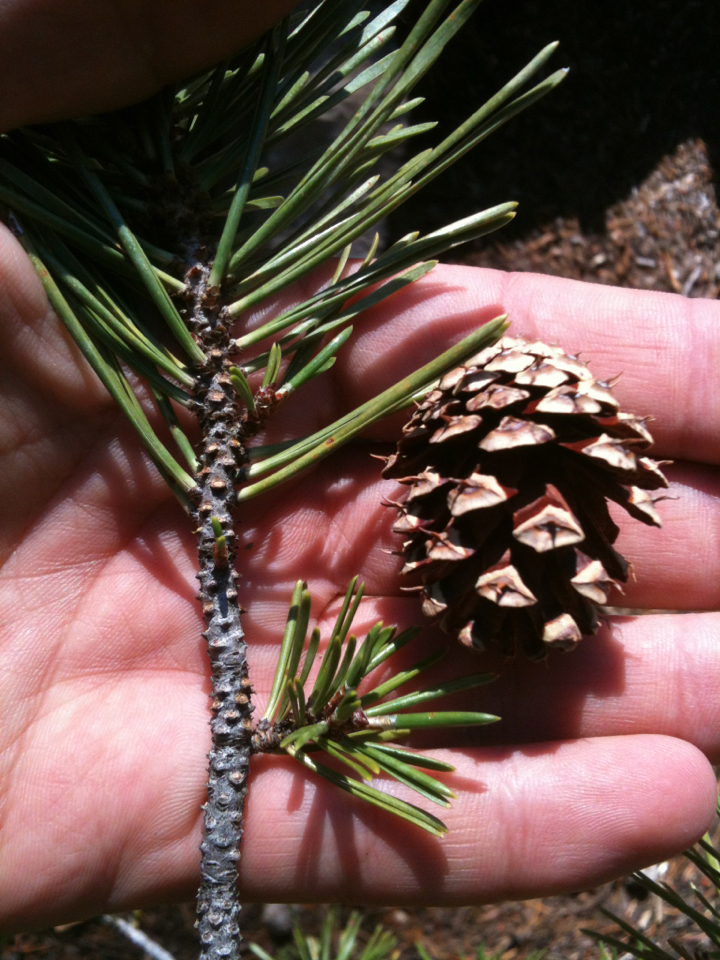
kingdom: Plantae
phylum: Tracheophyta
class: Pinopsida
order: Pinales
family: Pinaceae
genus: Pinus
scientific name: Pinus contorta
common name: Lodgepole pine
